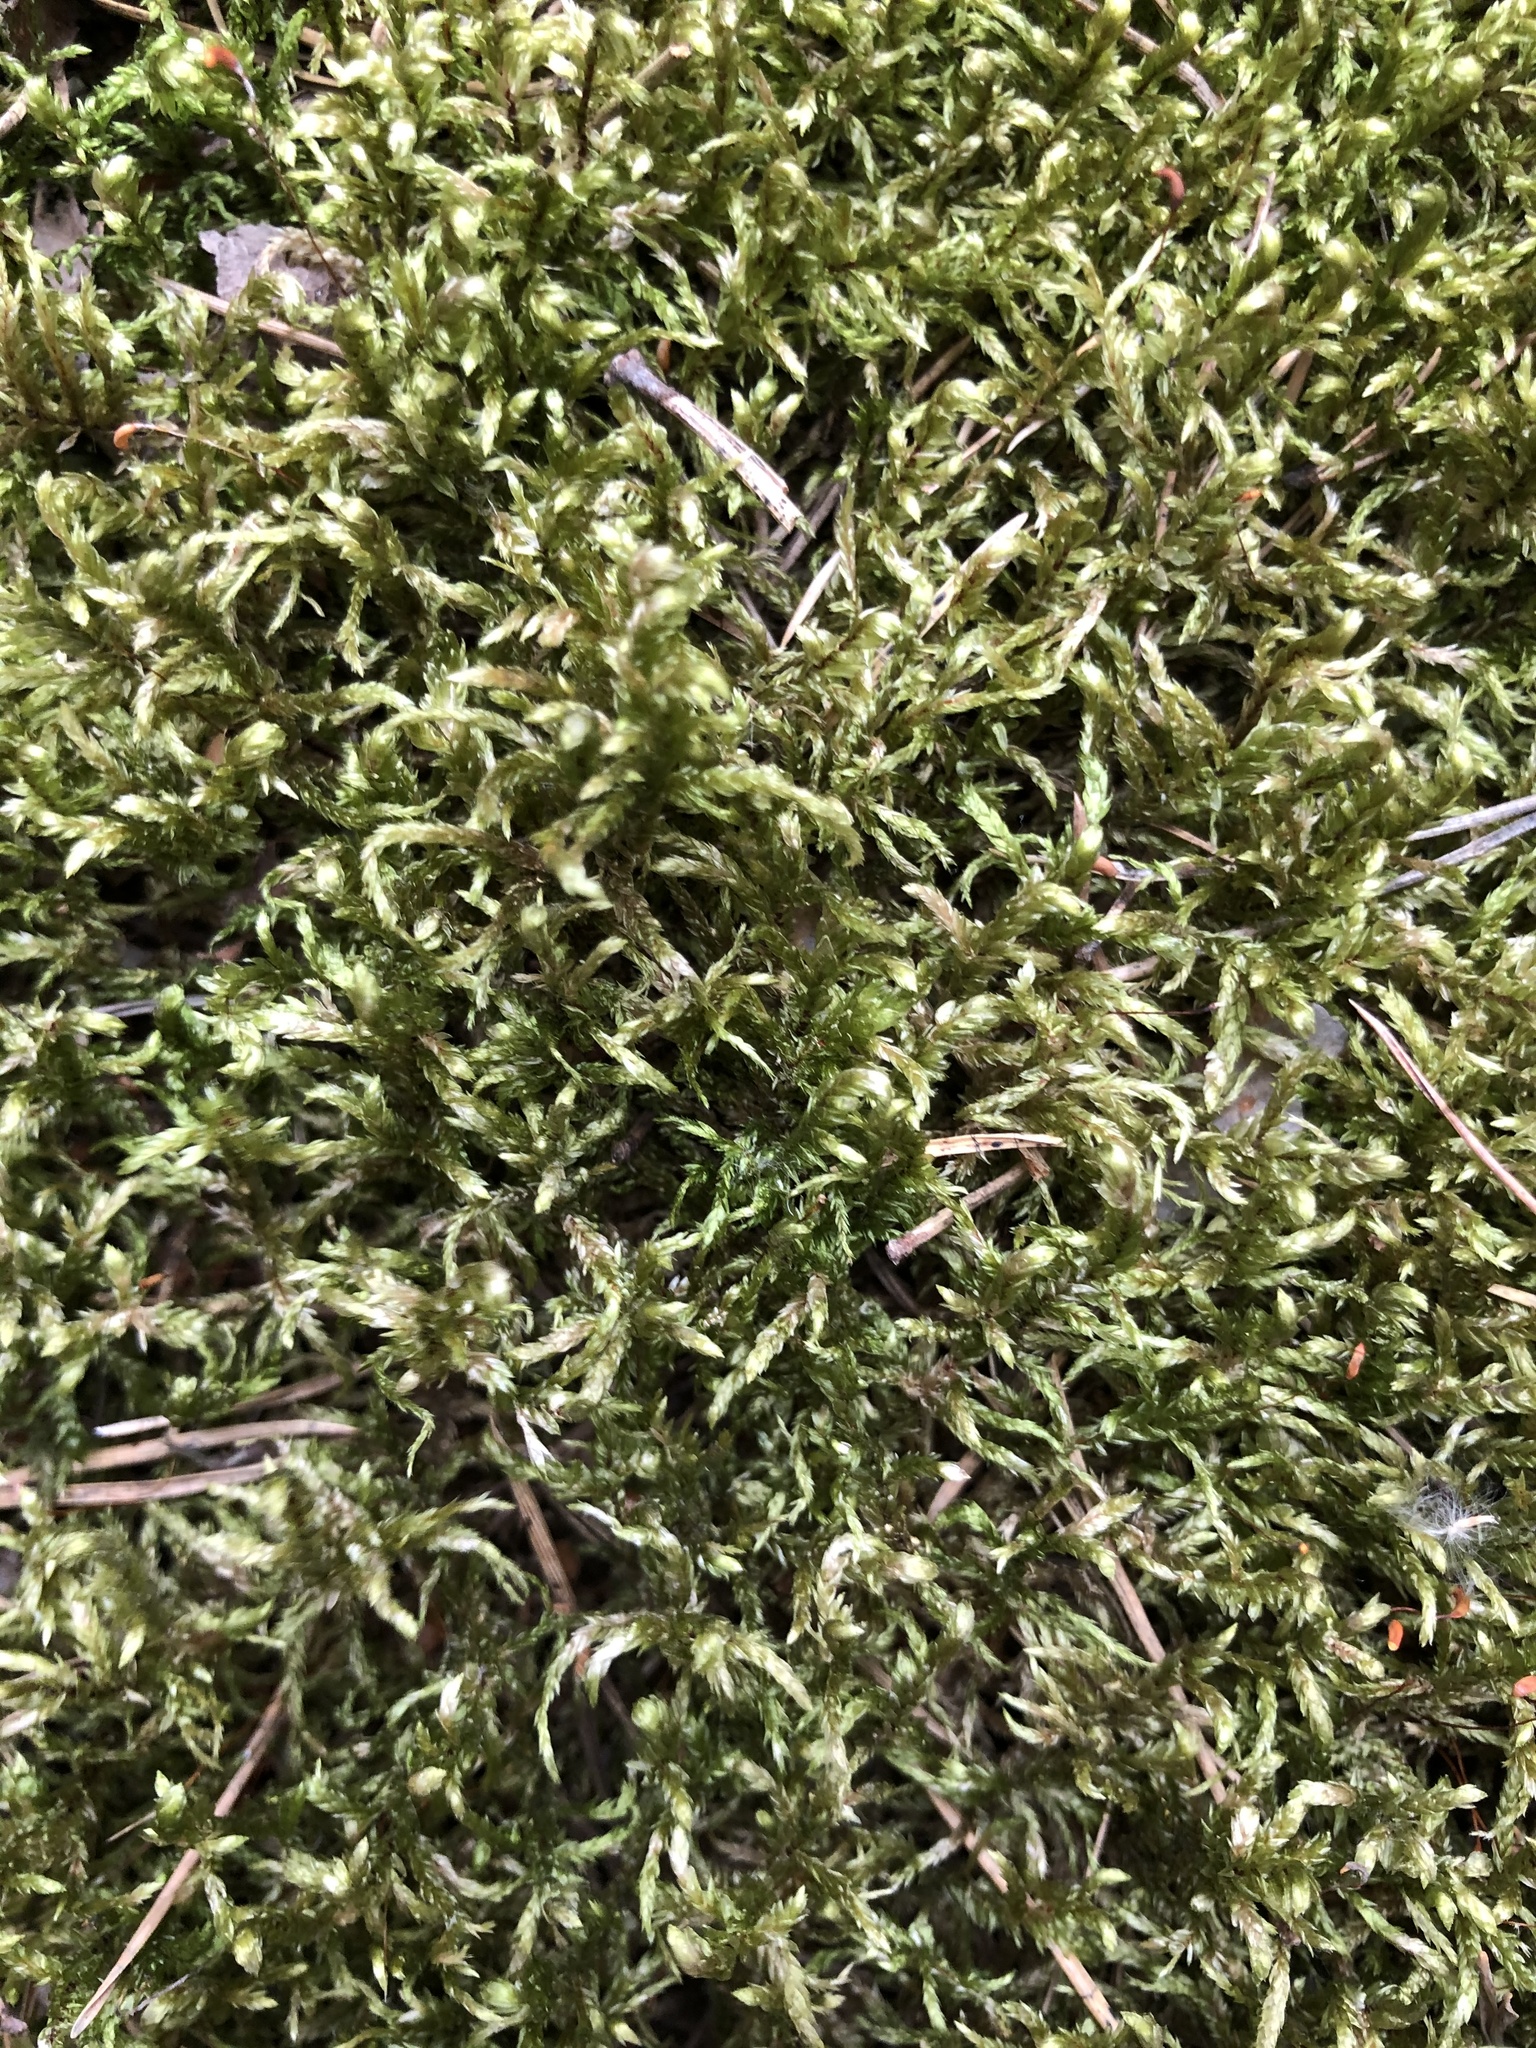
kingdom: Plantae
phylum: Bryophyta
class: Bryopsida
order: Hypnales
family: Hylocomiaceae
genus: Pleurozium
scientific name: Pleurozium schreberi
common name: Red-stemmed feather moss
